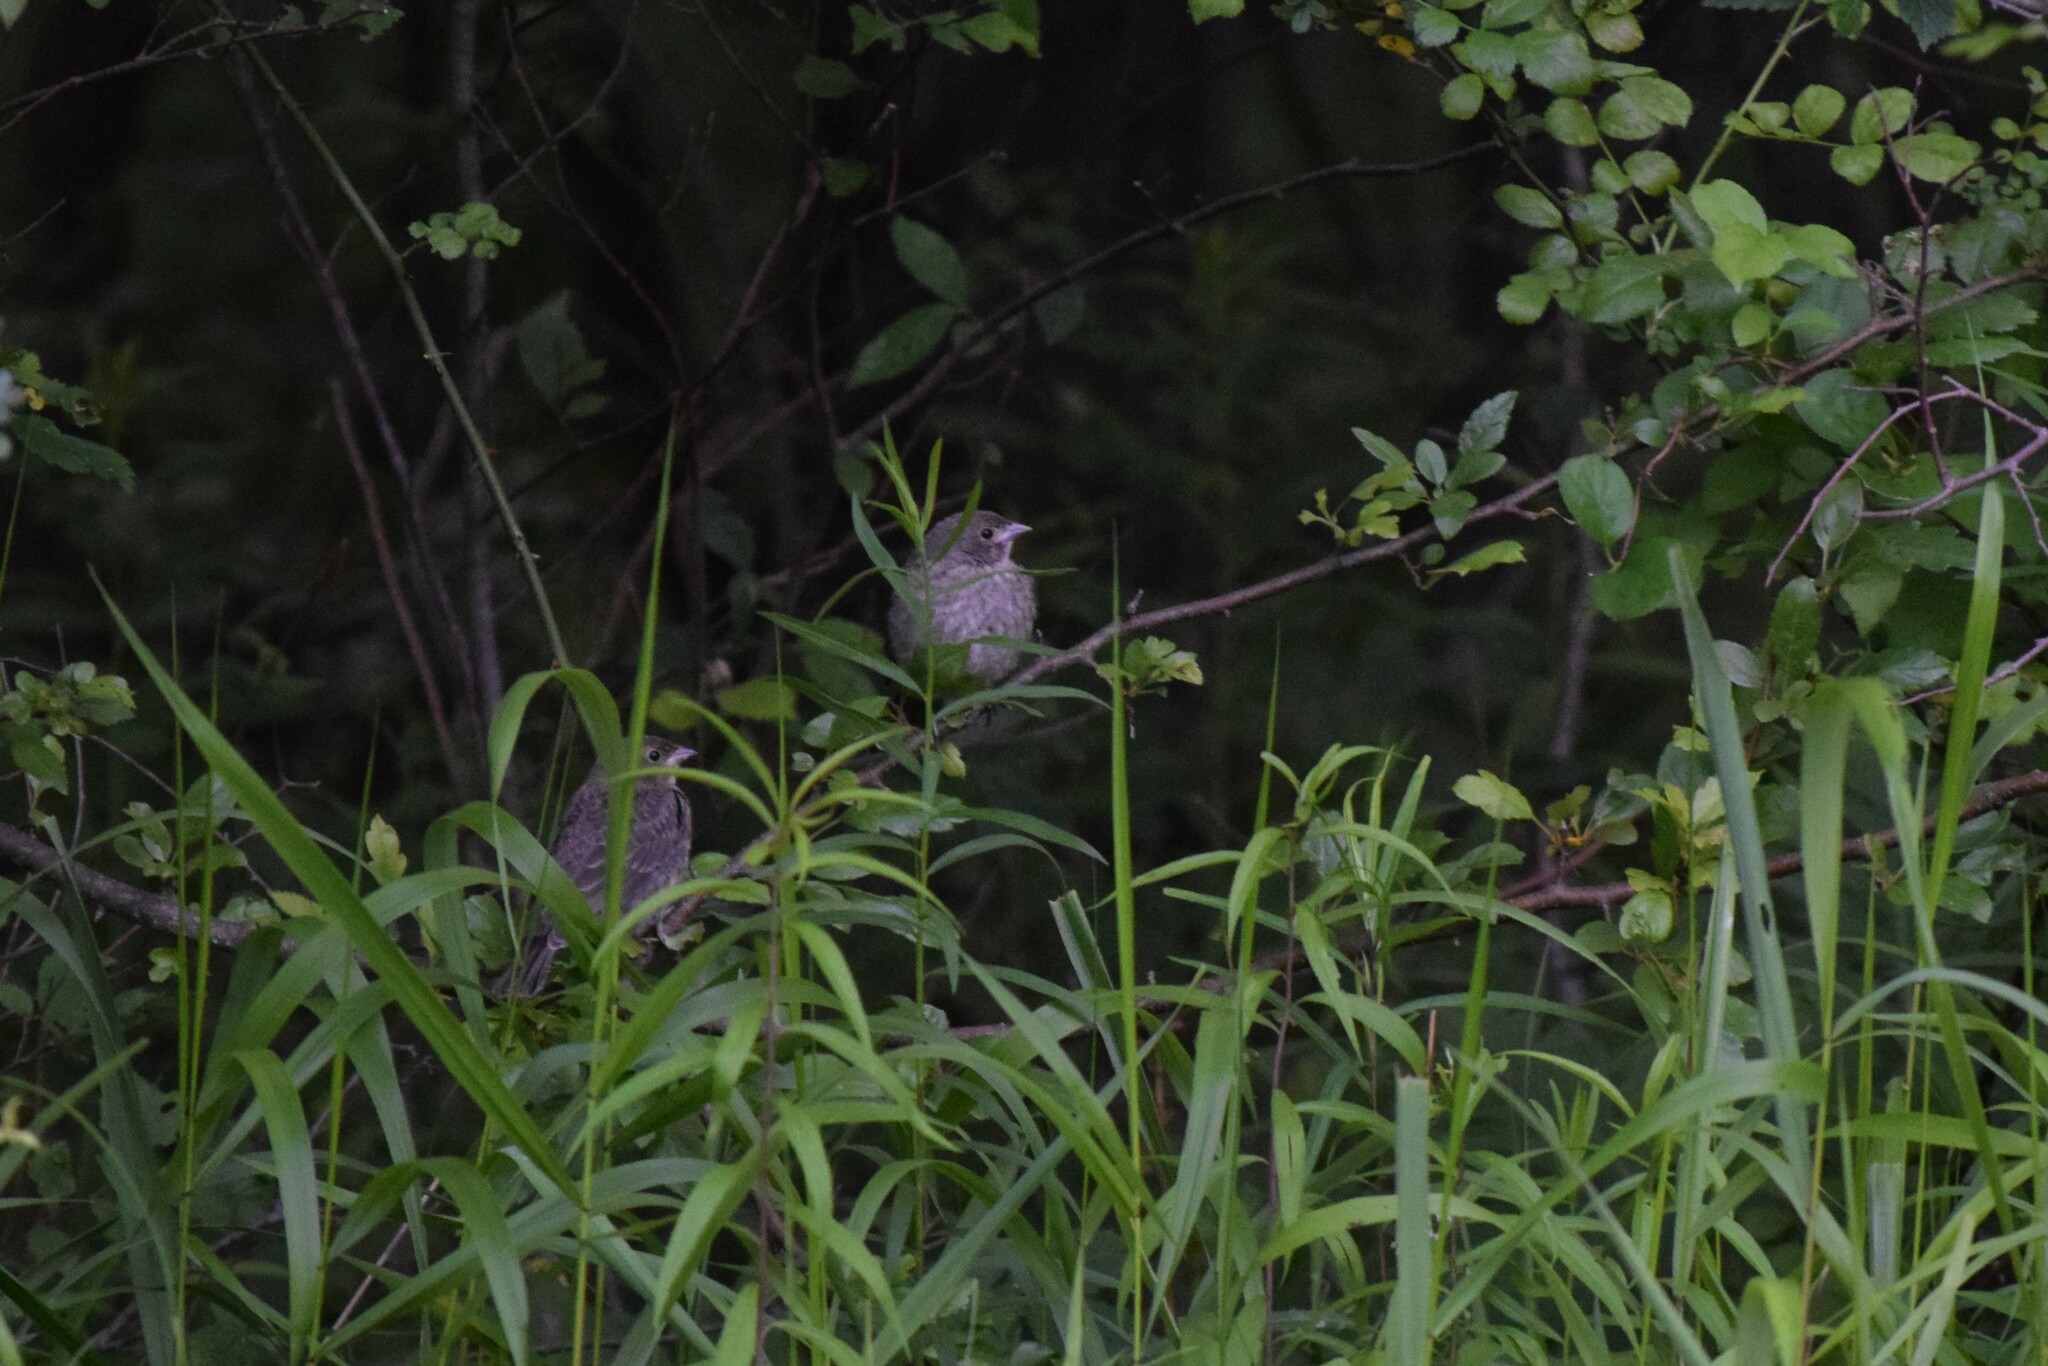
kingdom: Animalia
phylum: Chordata
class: Aves
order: Passeriformes
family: Icteridae
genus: Molothrus
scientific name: Molothrus ater
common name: Brown-headed cowbird
